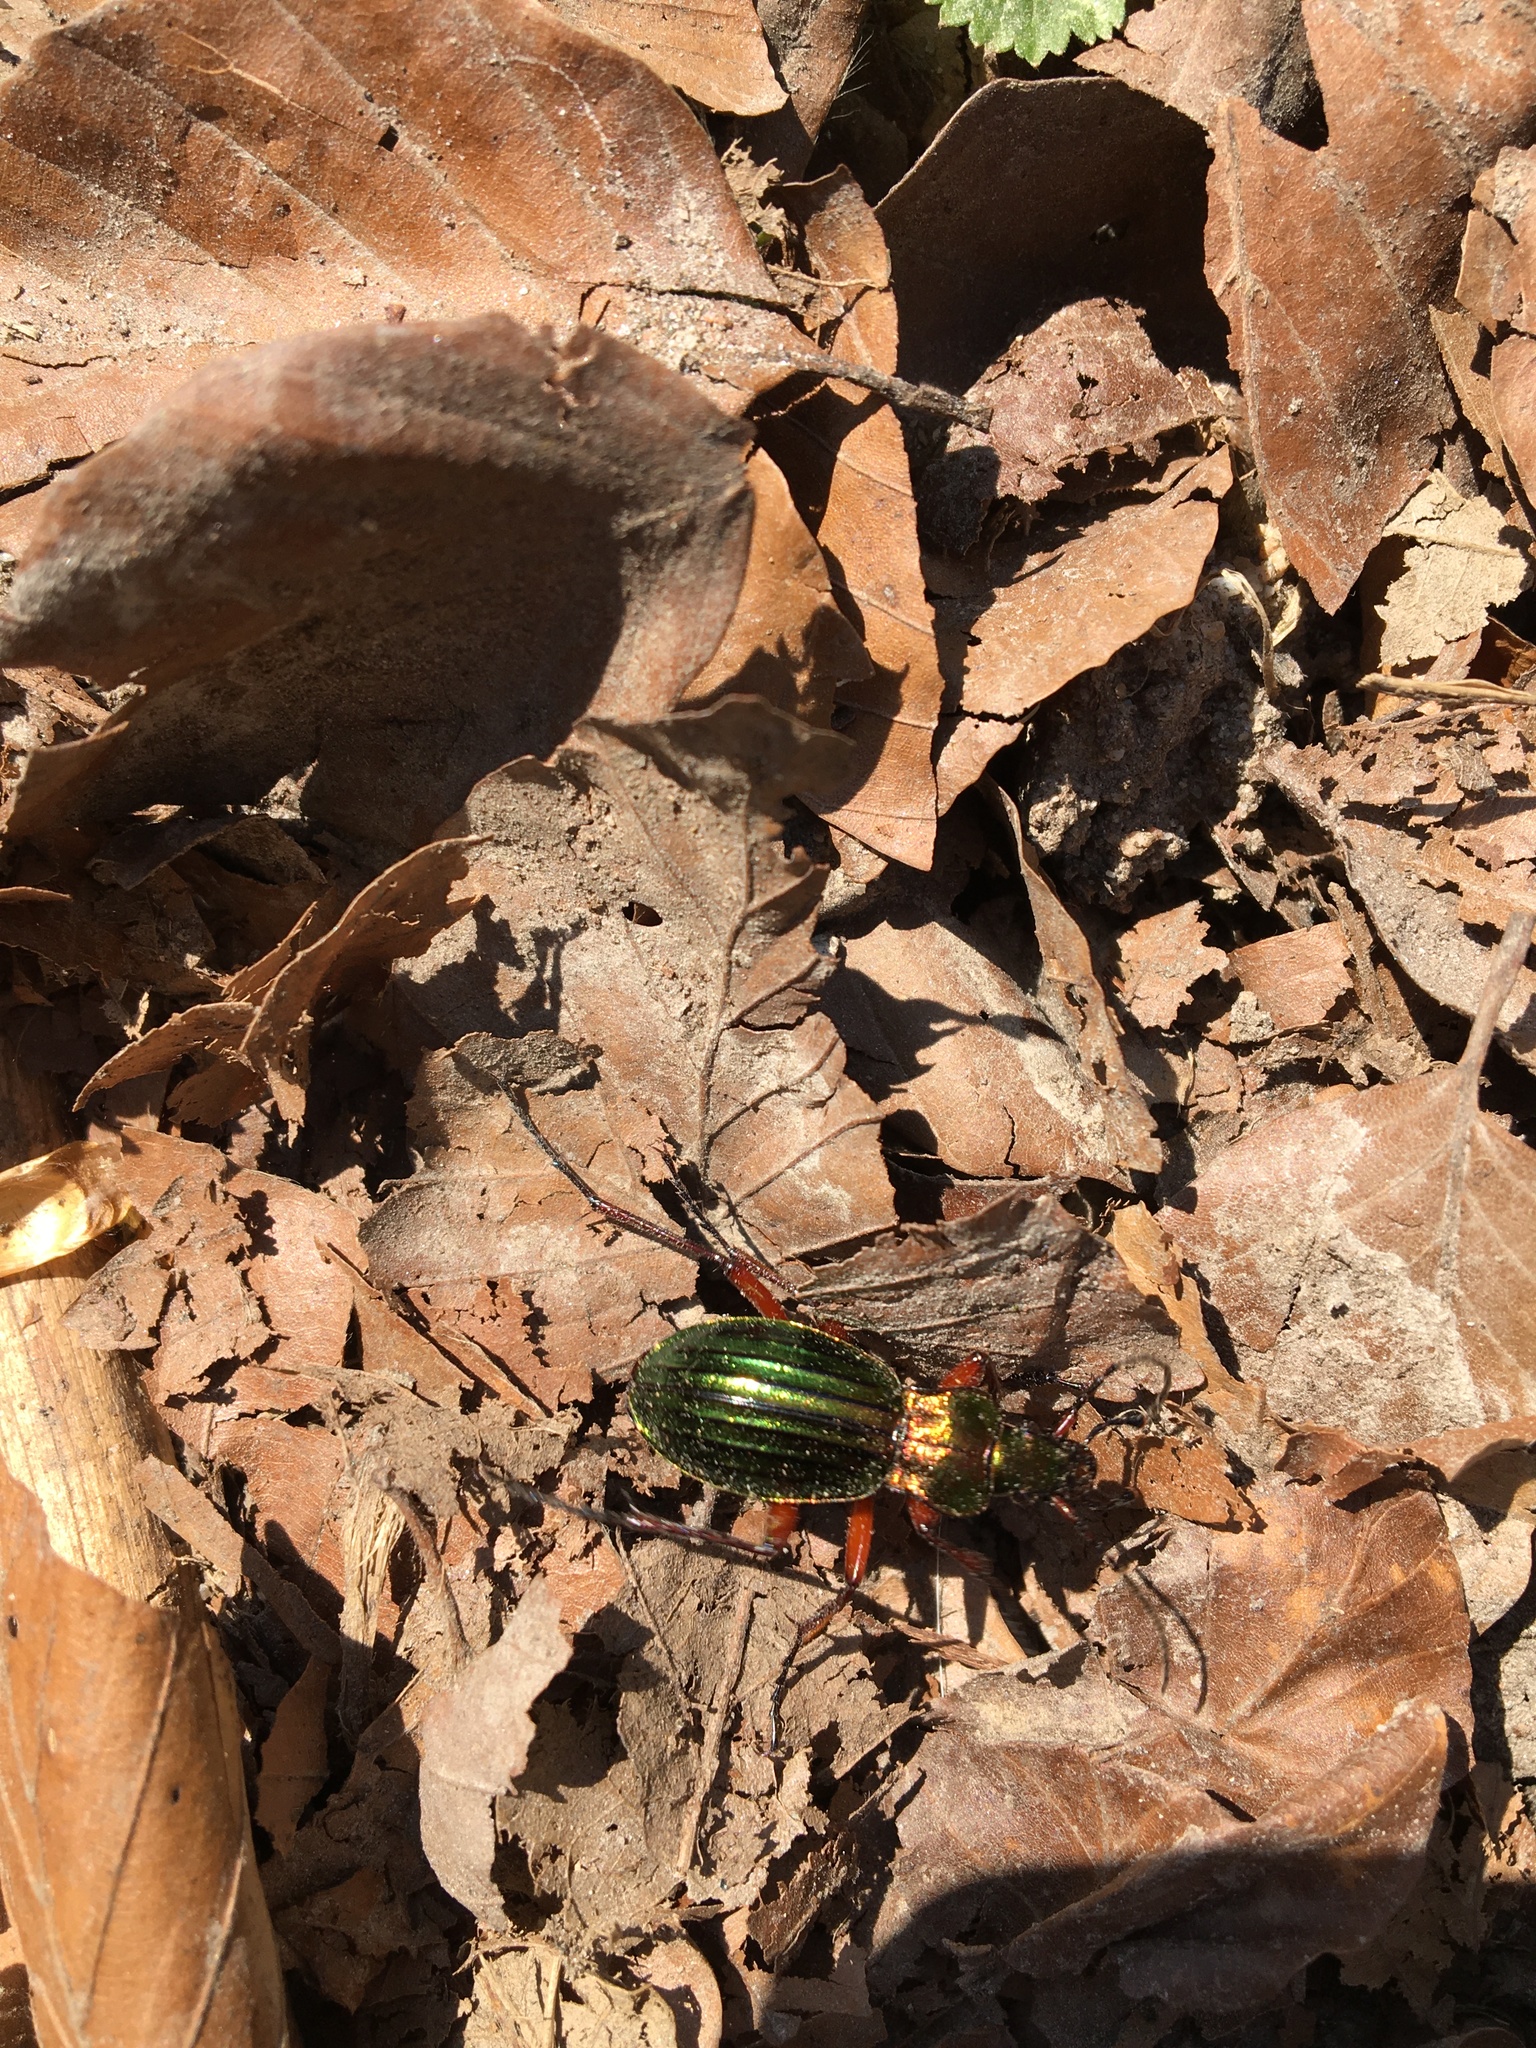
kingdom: Animalia
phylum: Arthropoda
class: Insecta
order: Coleoptera
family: Carabidae
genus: Carabus
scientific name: Carabus auronitens
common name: Carabus auronitens
